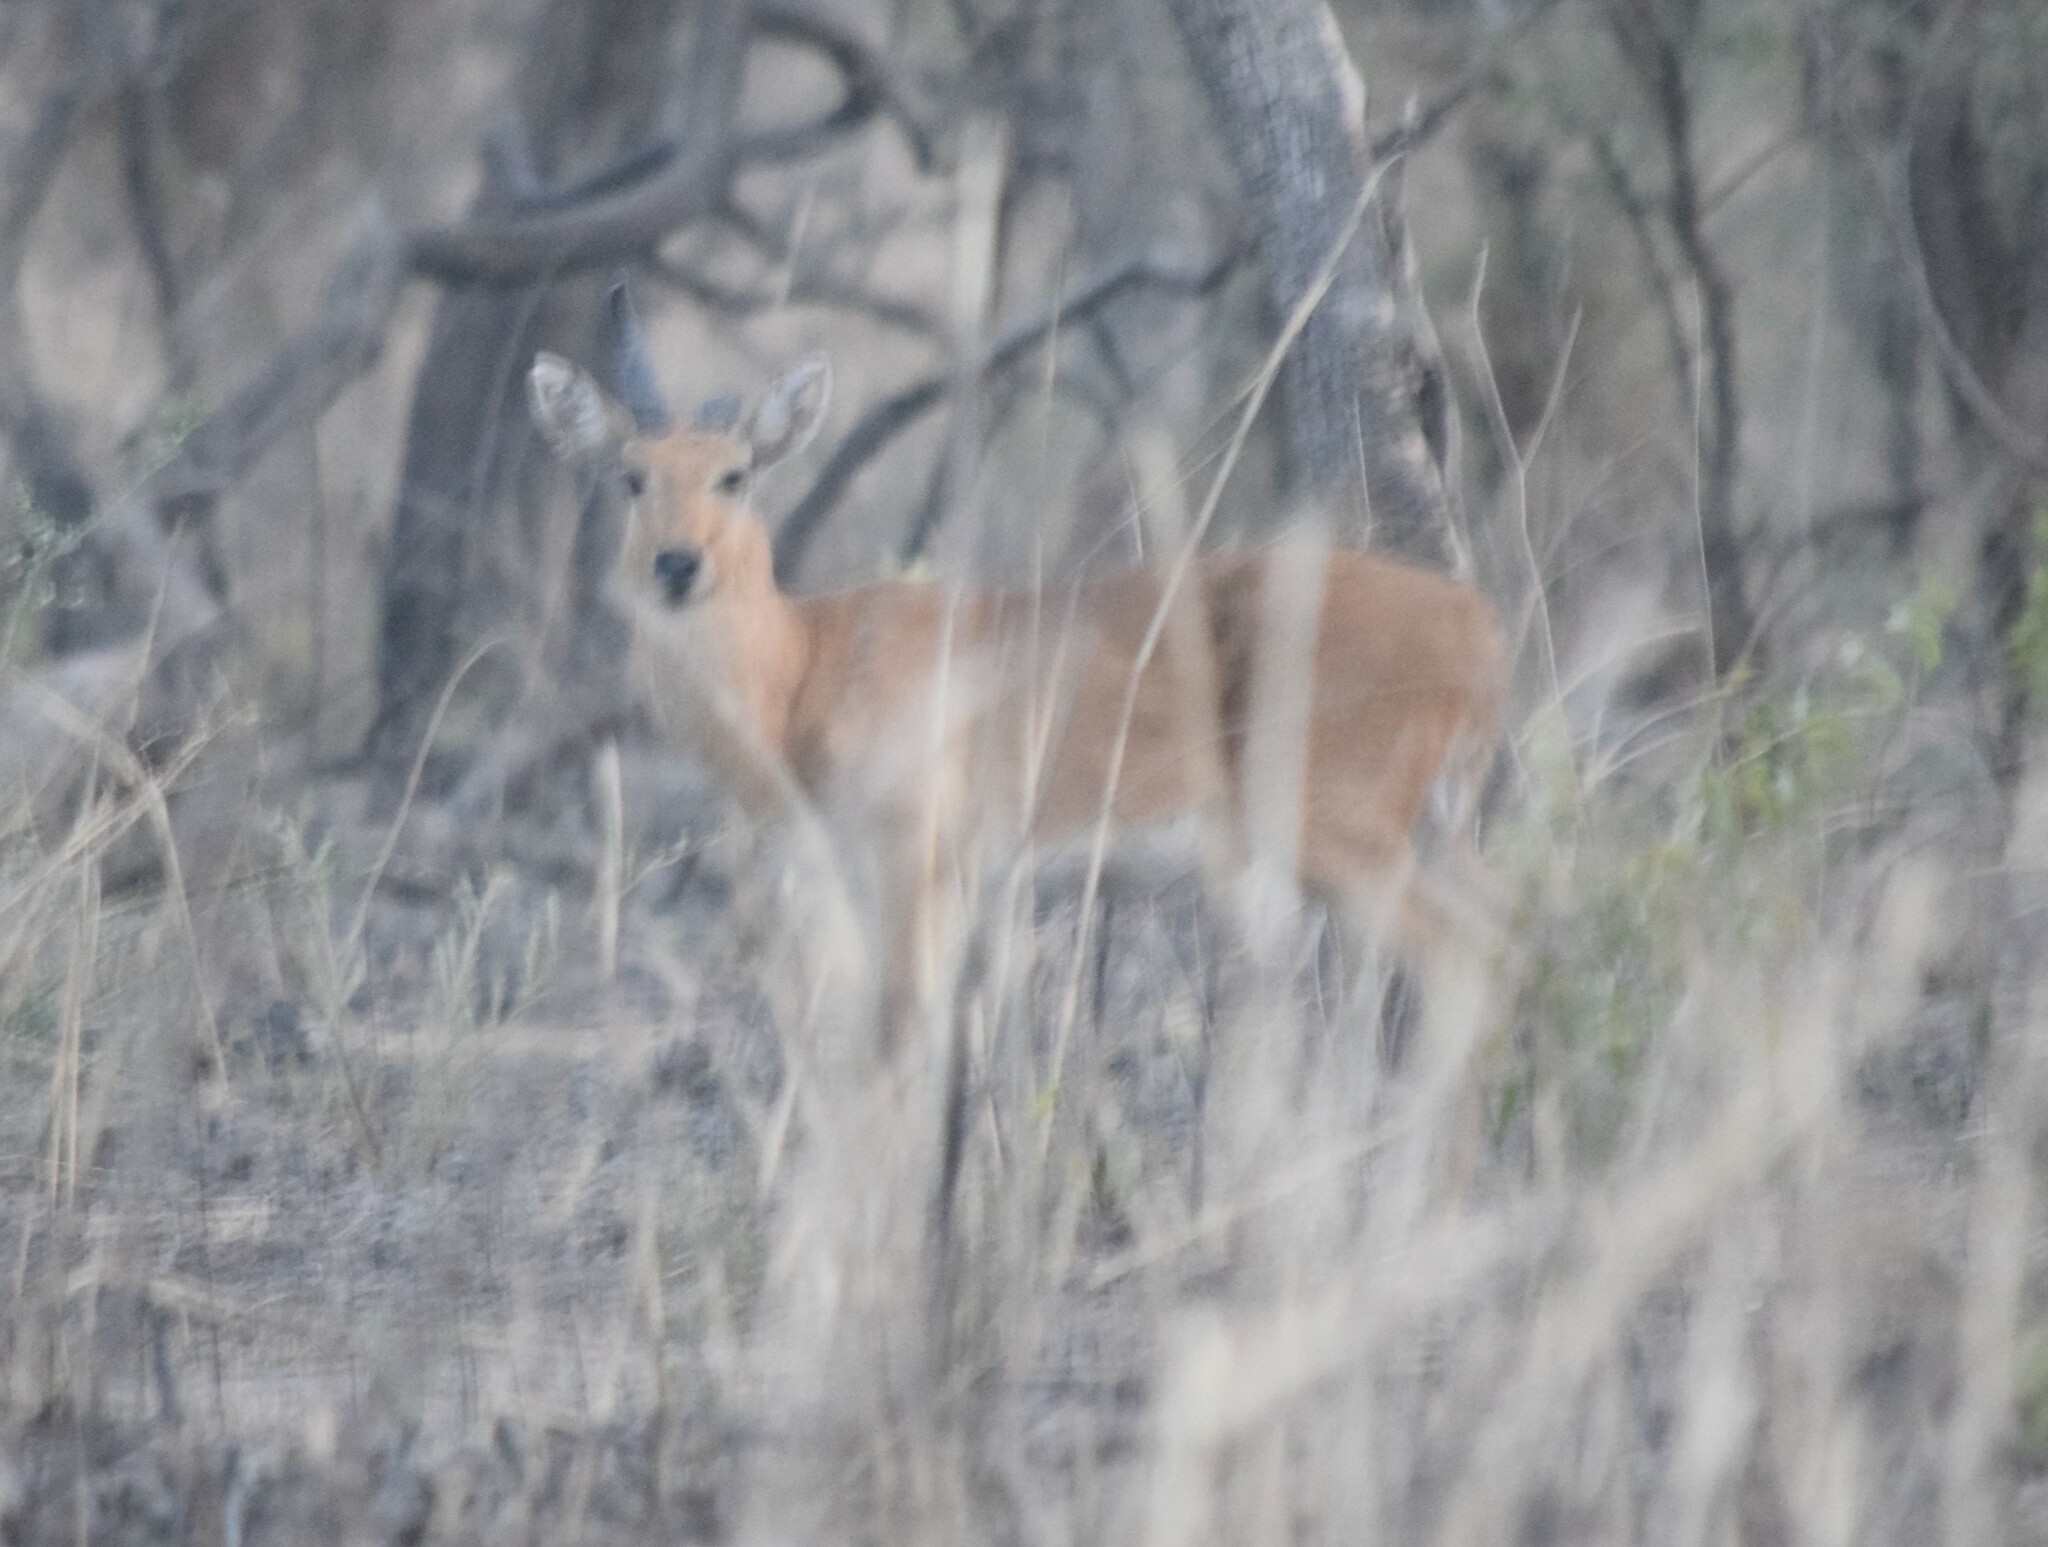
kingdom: Animalia
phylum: Chordata
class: Mammalia
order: Artiodactyla
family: Bovidae
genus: Redunca
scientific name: Redunca redunca
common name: Common reedbuck
